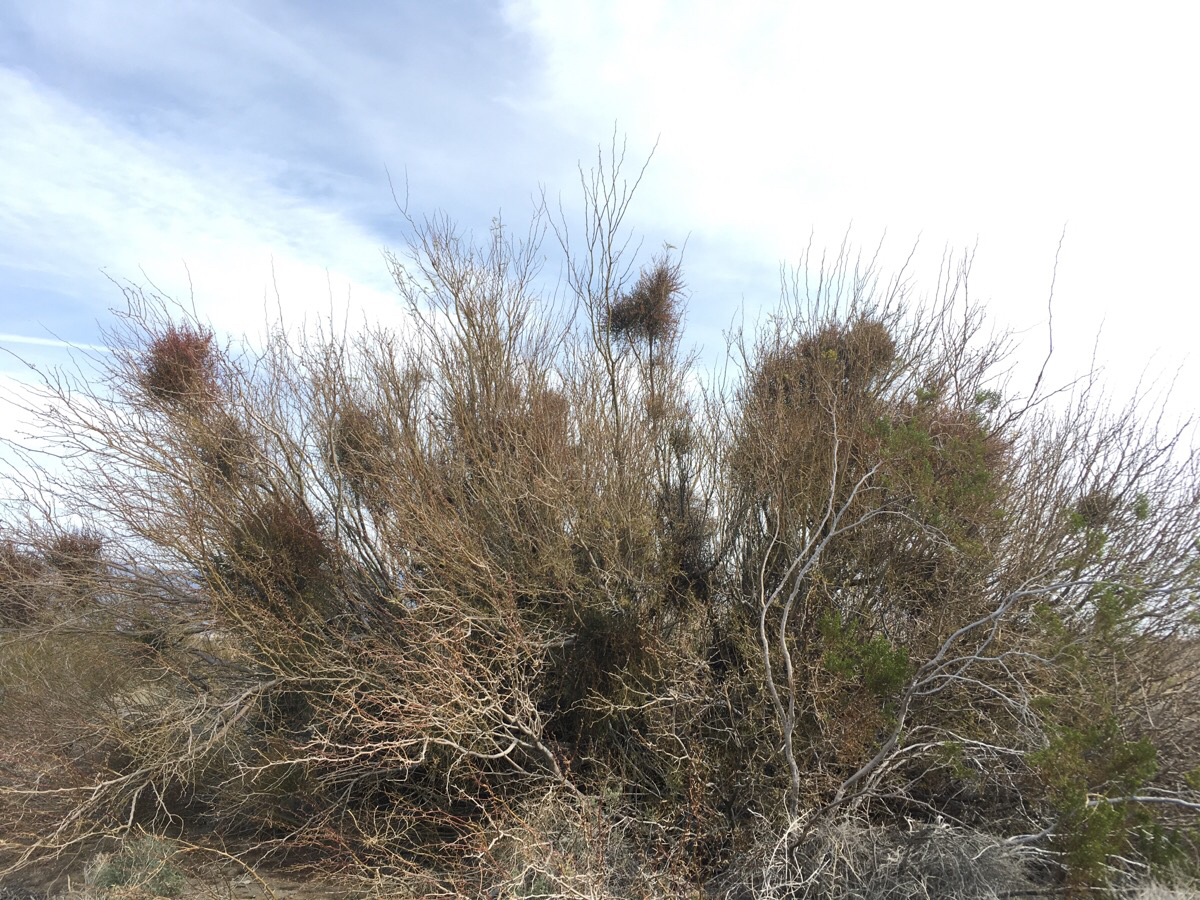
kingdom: Plantae
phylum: Tracheophyta
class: Magnoliopsida
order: Santalales
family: Viscaceae
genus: Phoradendron
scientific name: Phoradendron californicum
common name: Acacia mistletoe
